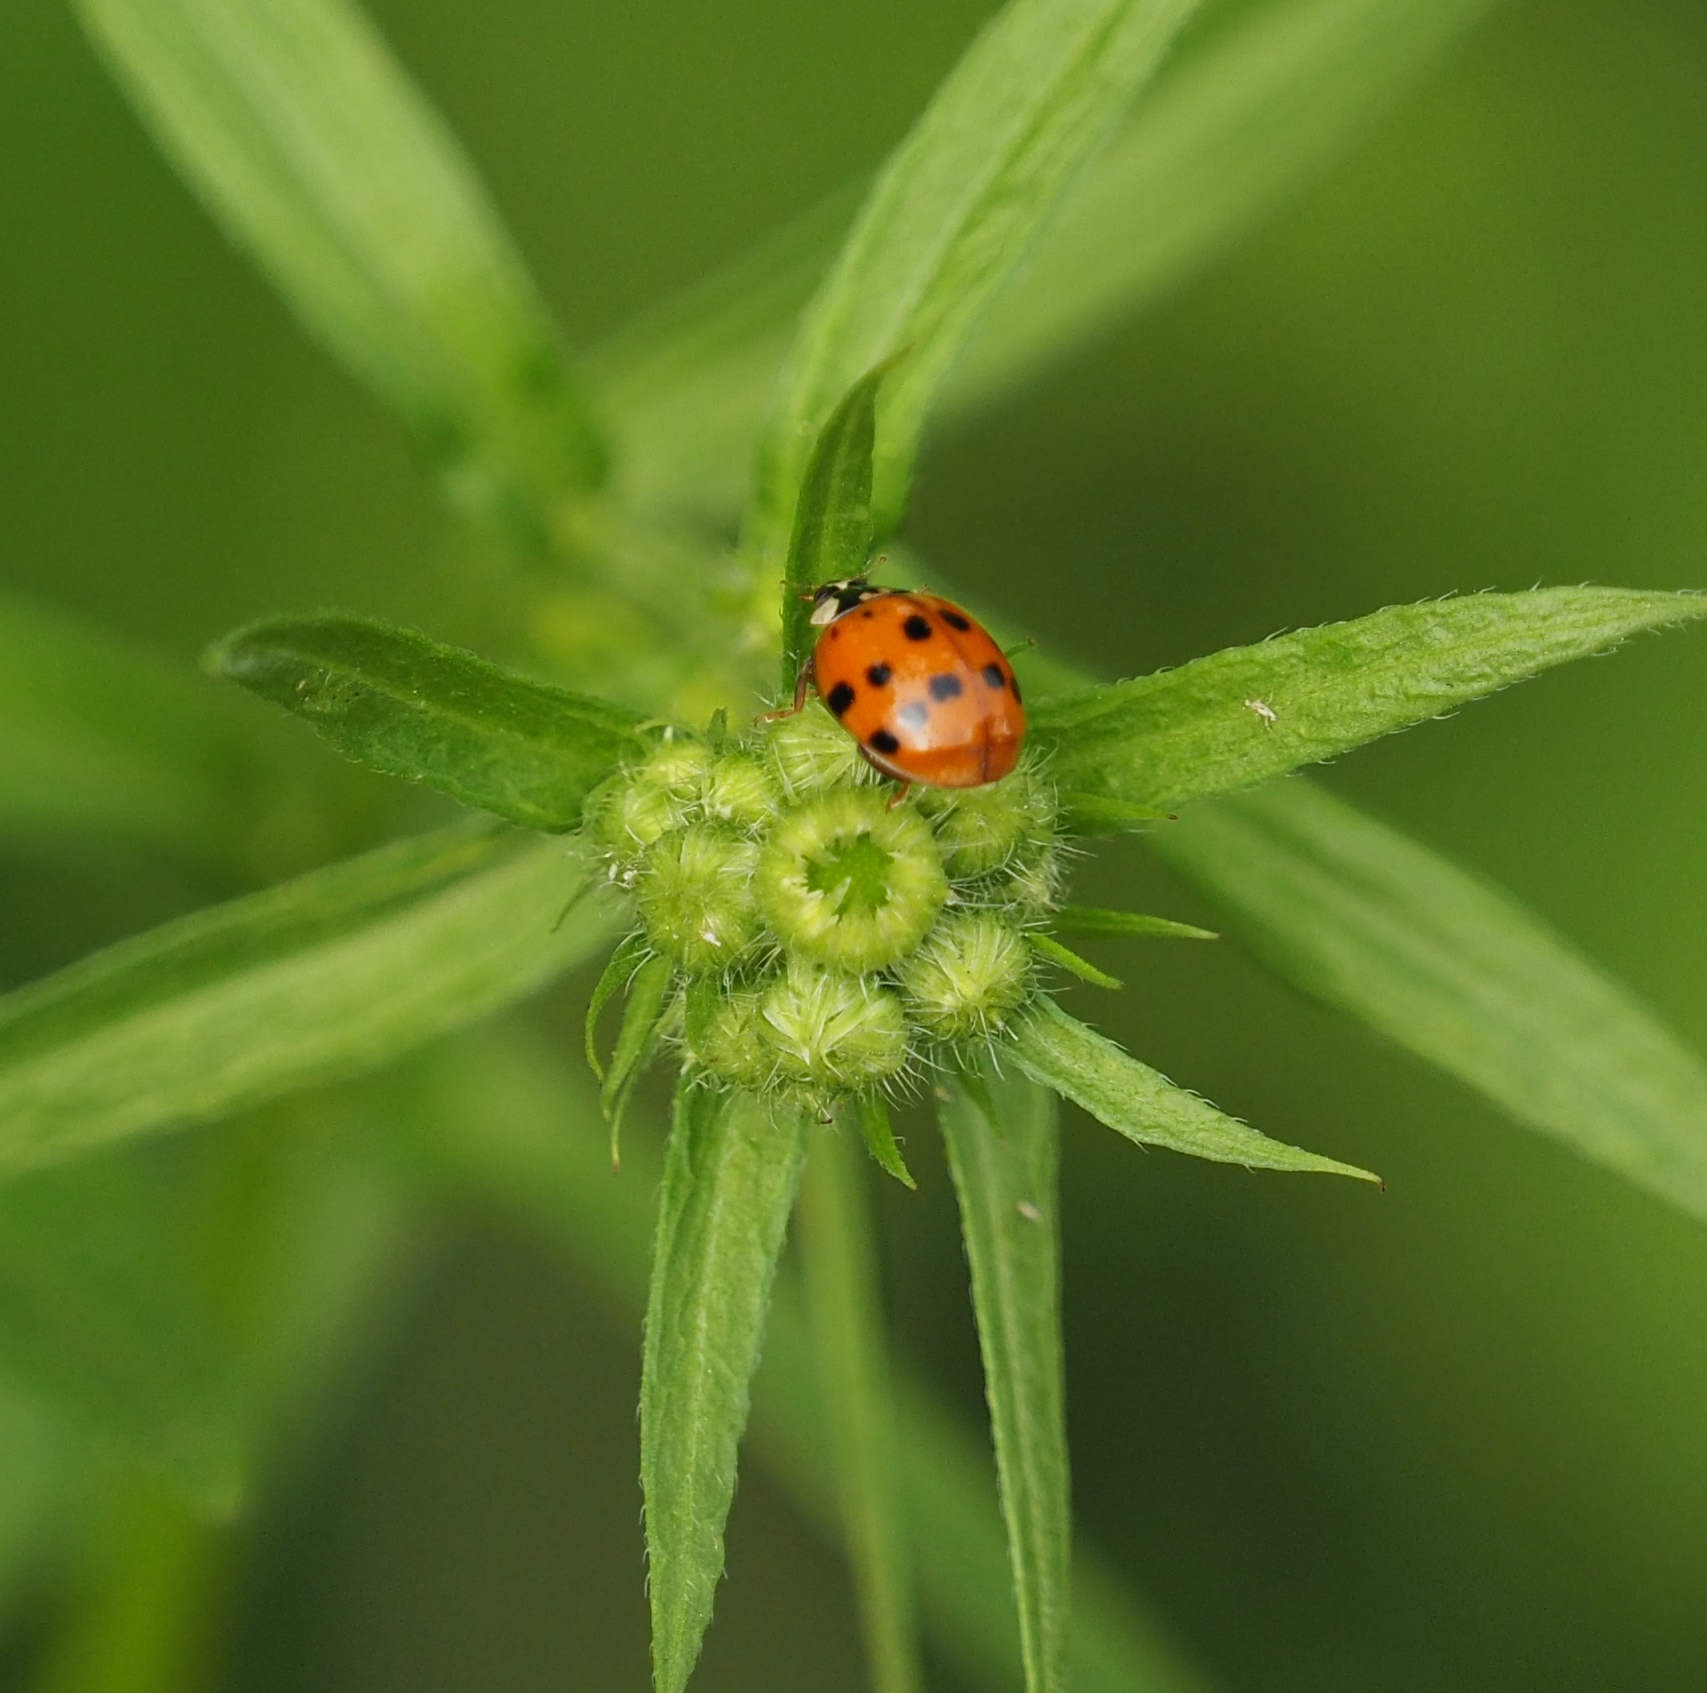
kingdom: Animalia
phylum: Arthropoda
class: Insecta
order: Coleoptera
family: Coccinellidae
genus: Harmonia
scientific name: Harmonia axyridis
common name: Harlequin ladybird
